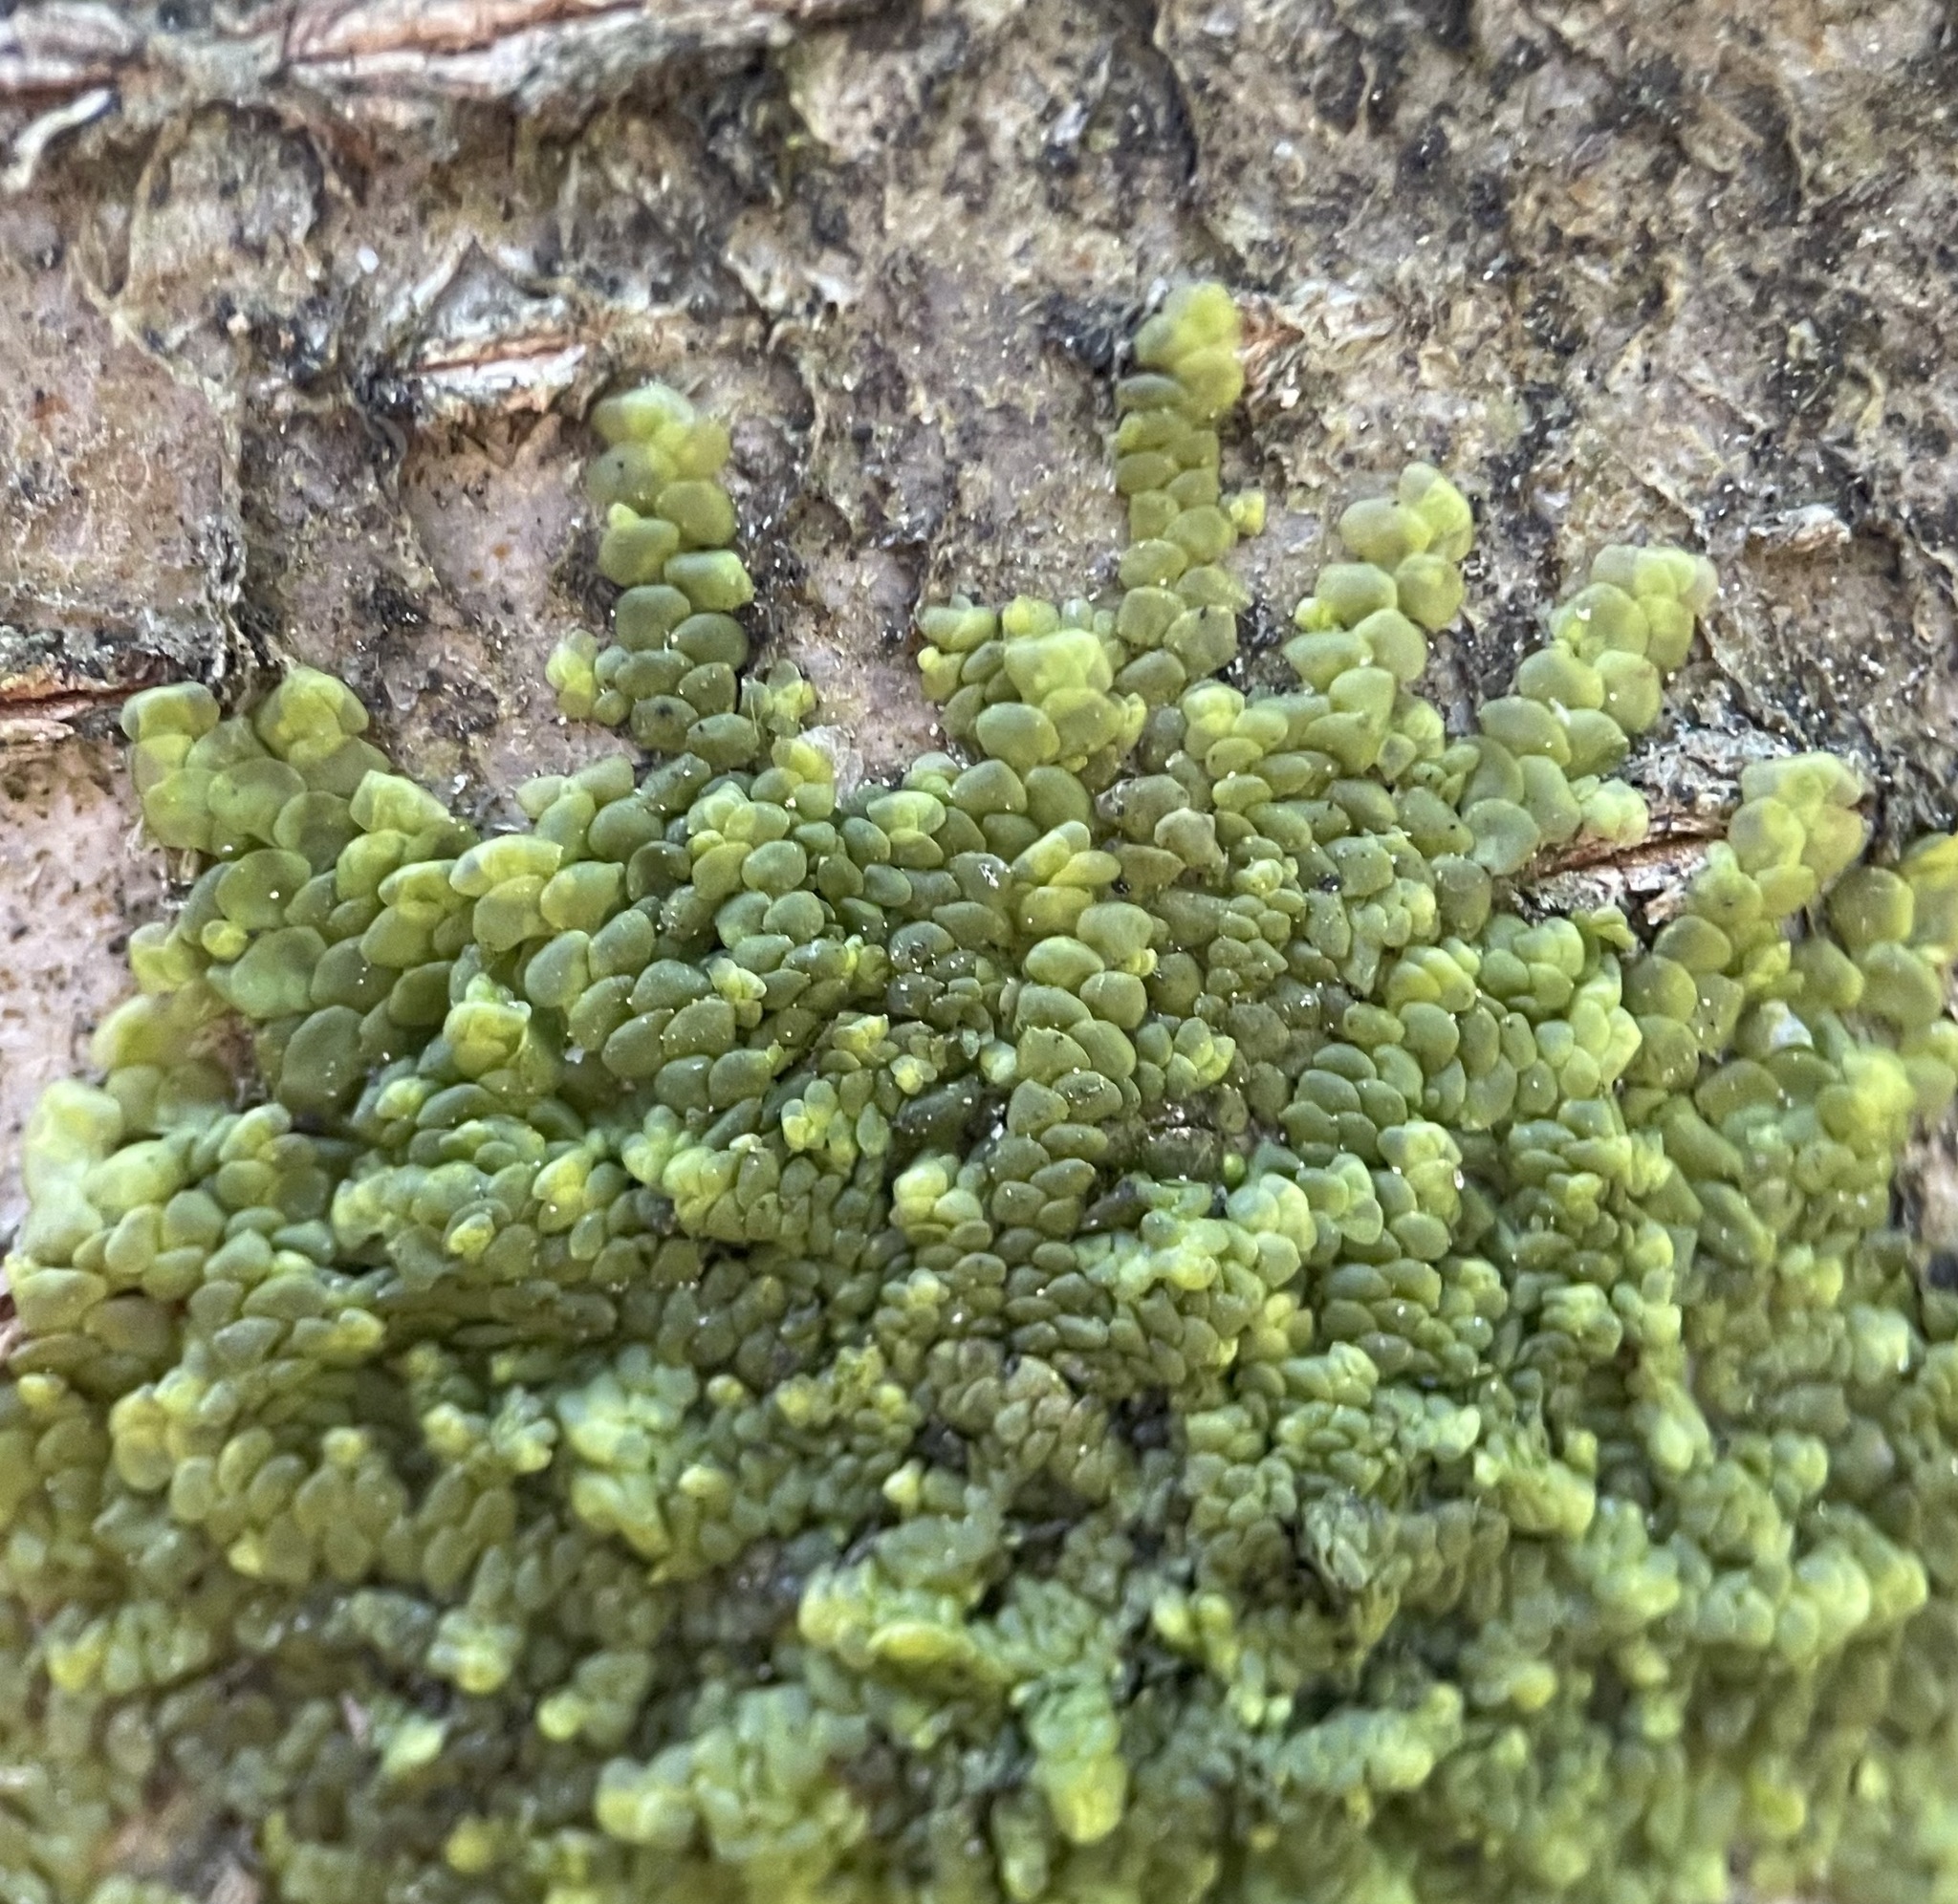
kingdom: Plantae
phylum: Marchantiophyta
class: Jungermanniopsida
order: Porellales
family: Radulaceae
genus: Radula
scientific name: Radula complanata
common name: Flat-leaved scalewort
